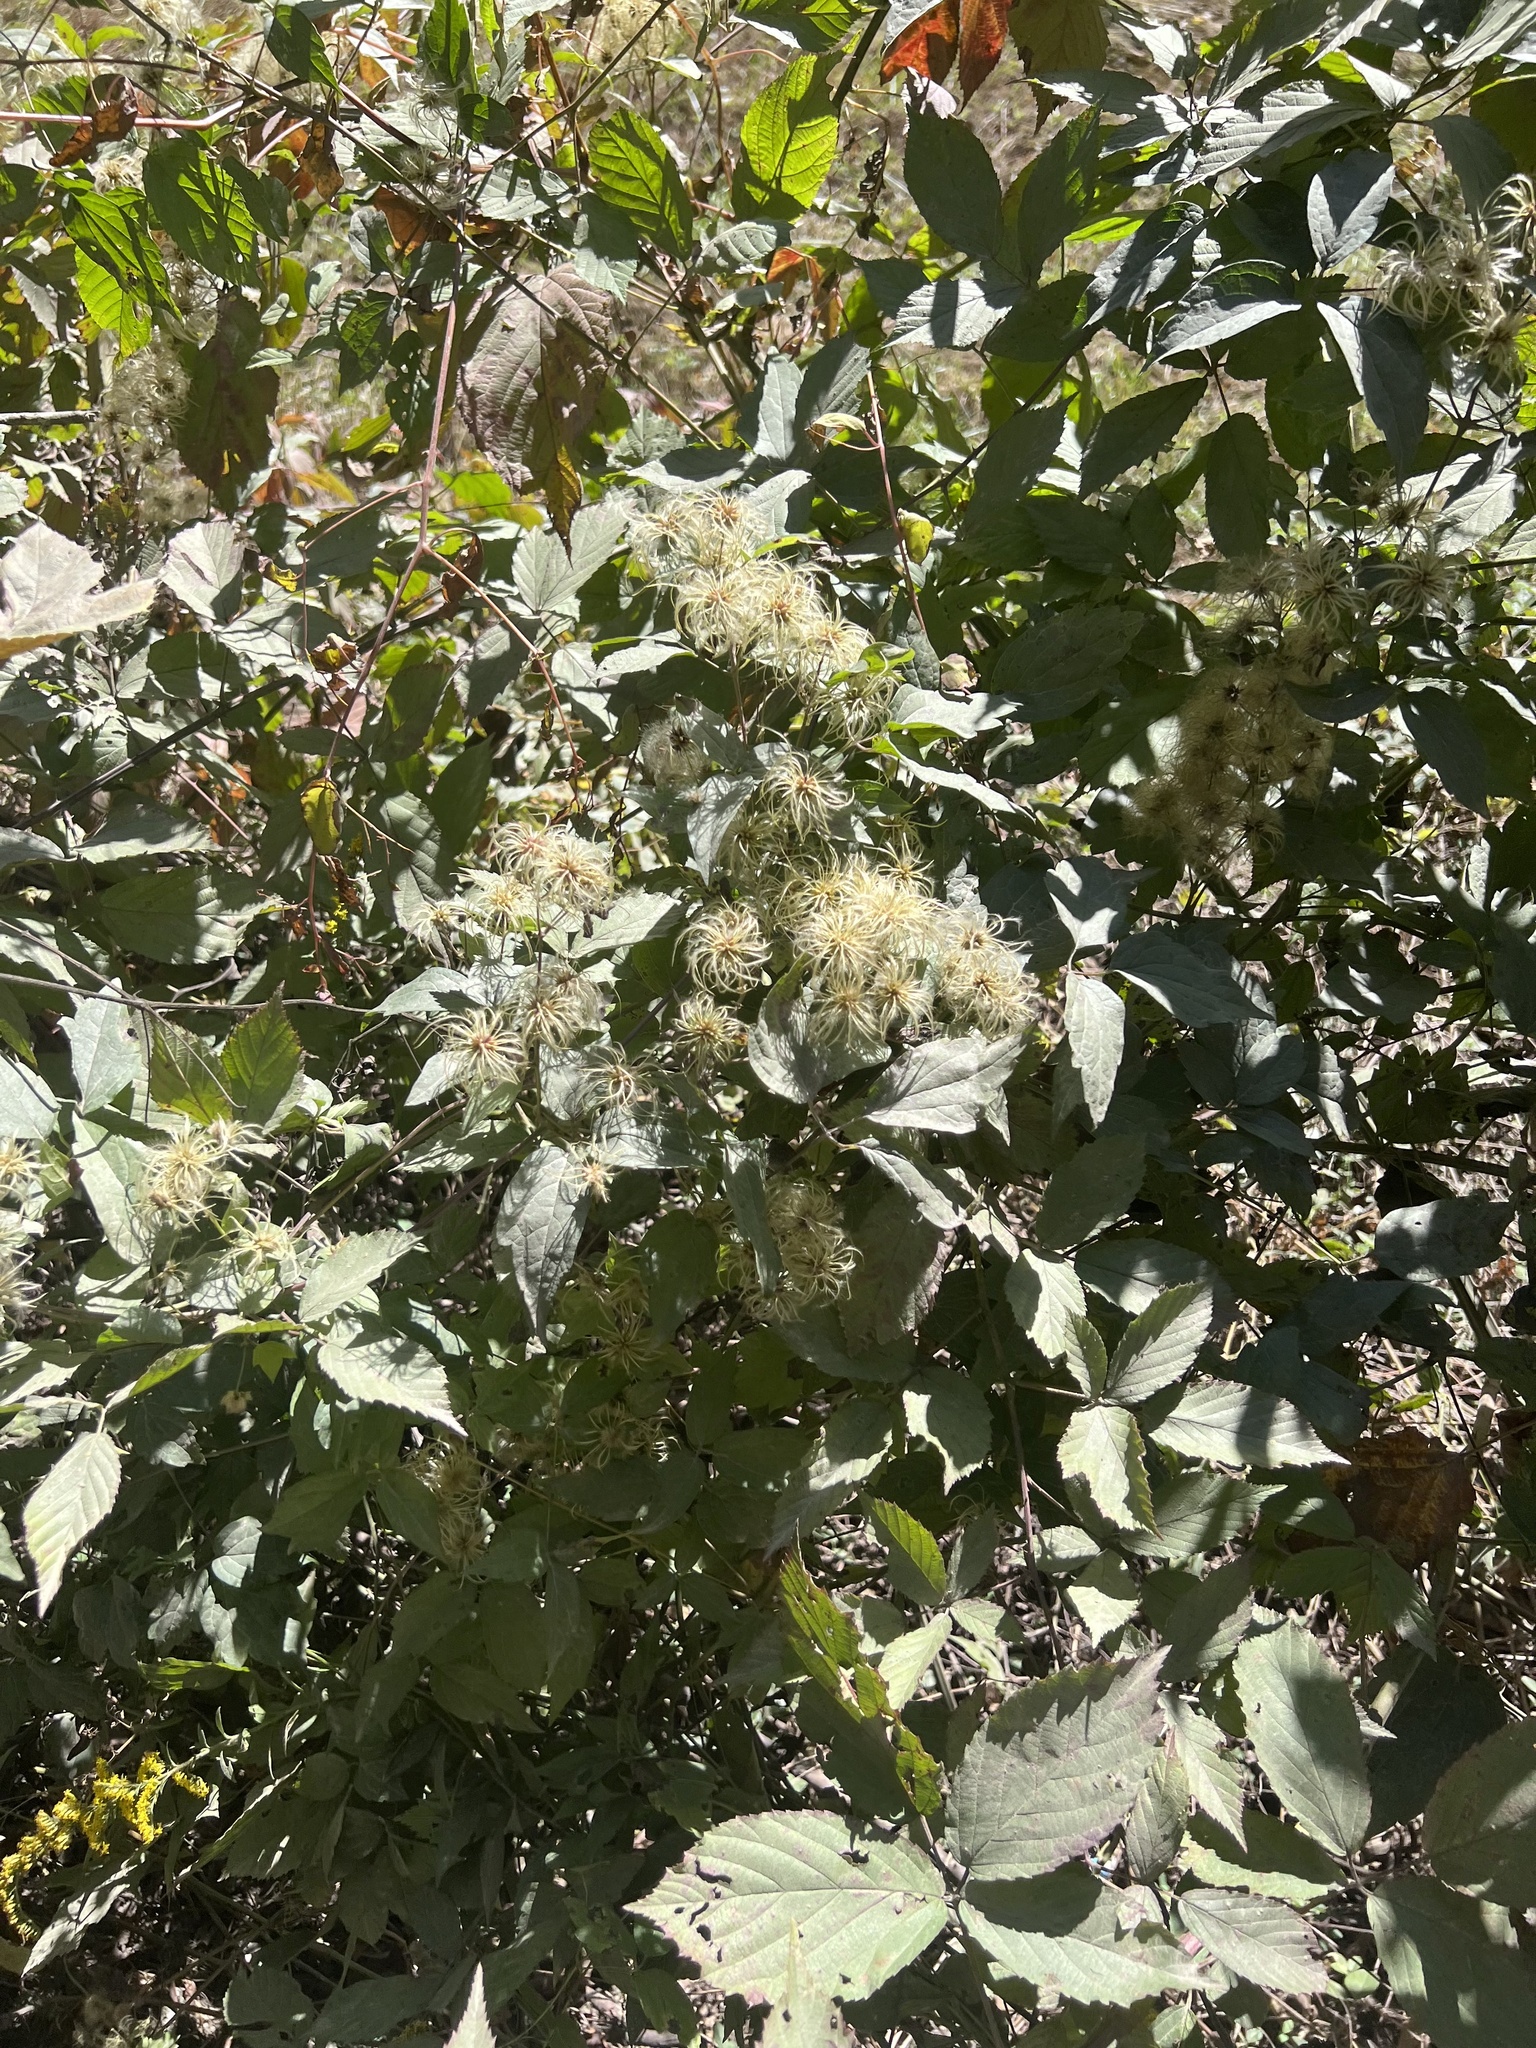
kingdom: Plantae
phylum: Tracheophyta
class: Magnoliopsida
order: Ranunculales
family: Ranunculaceae
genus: Clematis
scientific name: Clematis virginiana
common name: Virgin's-bower
